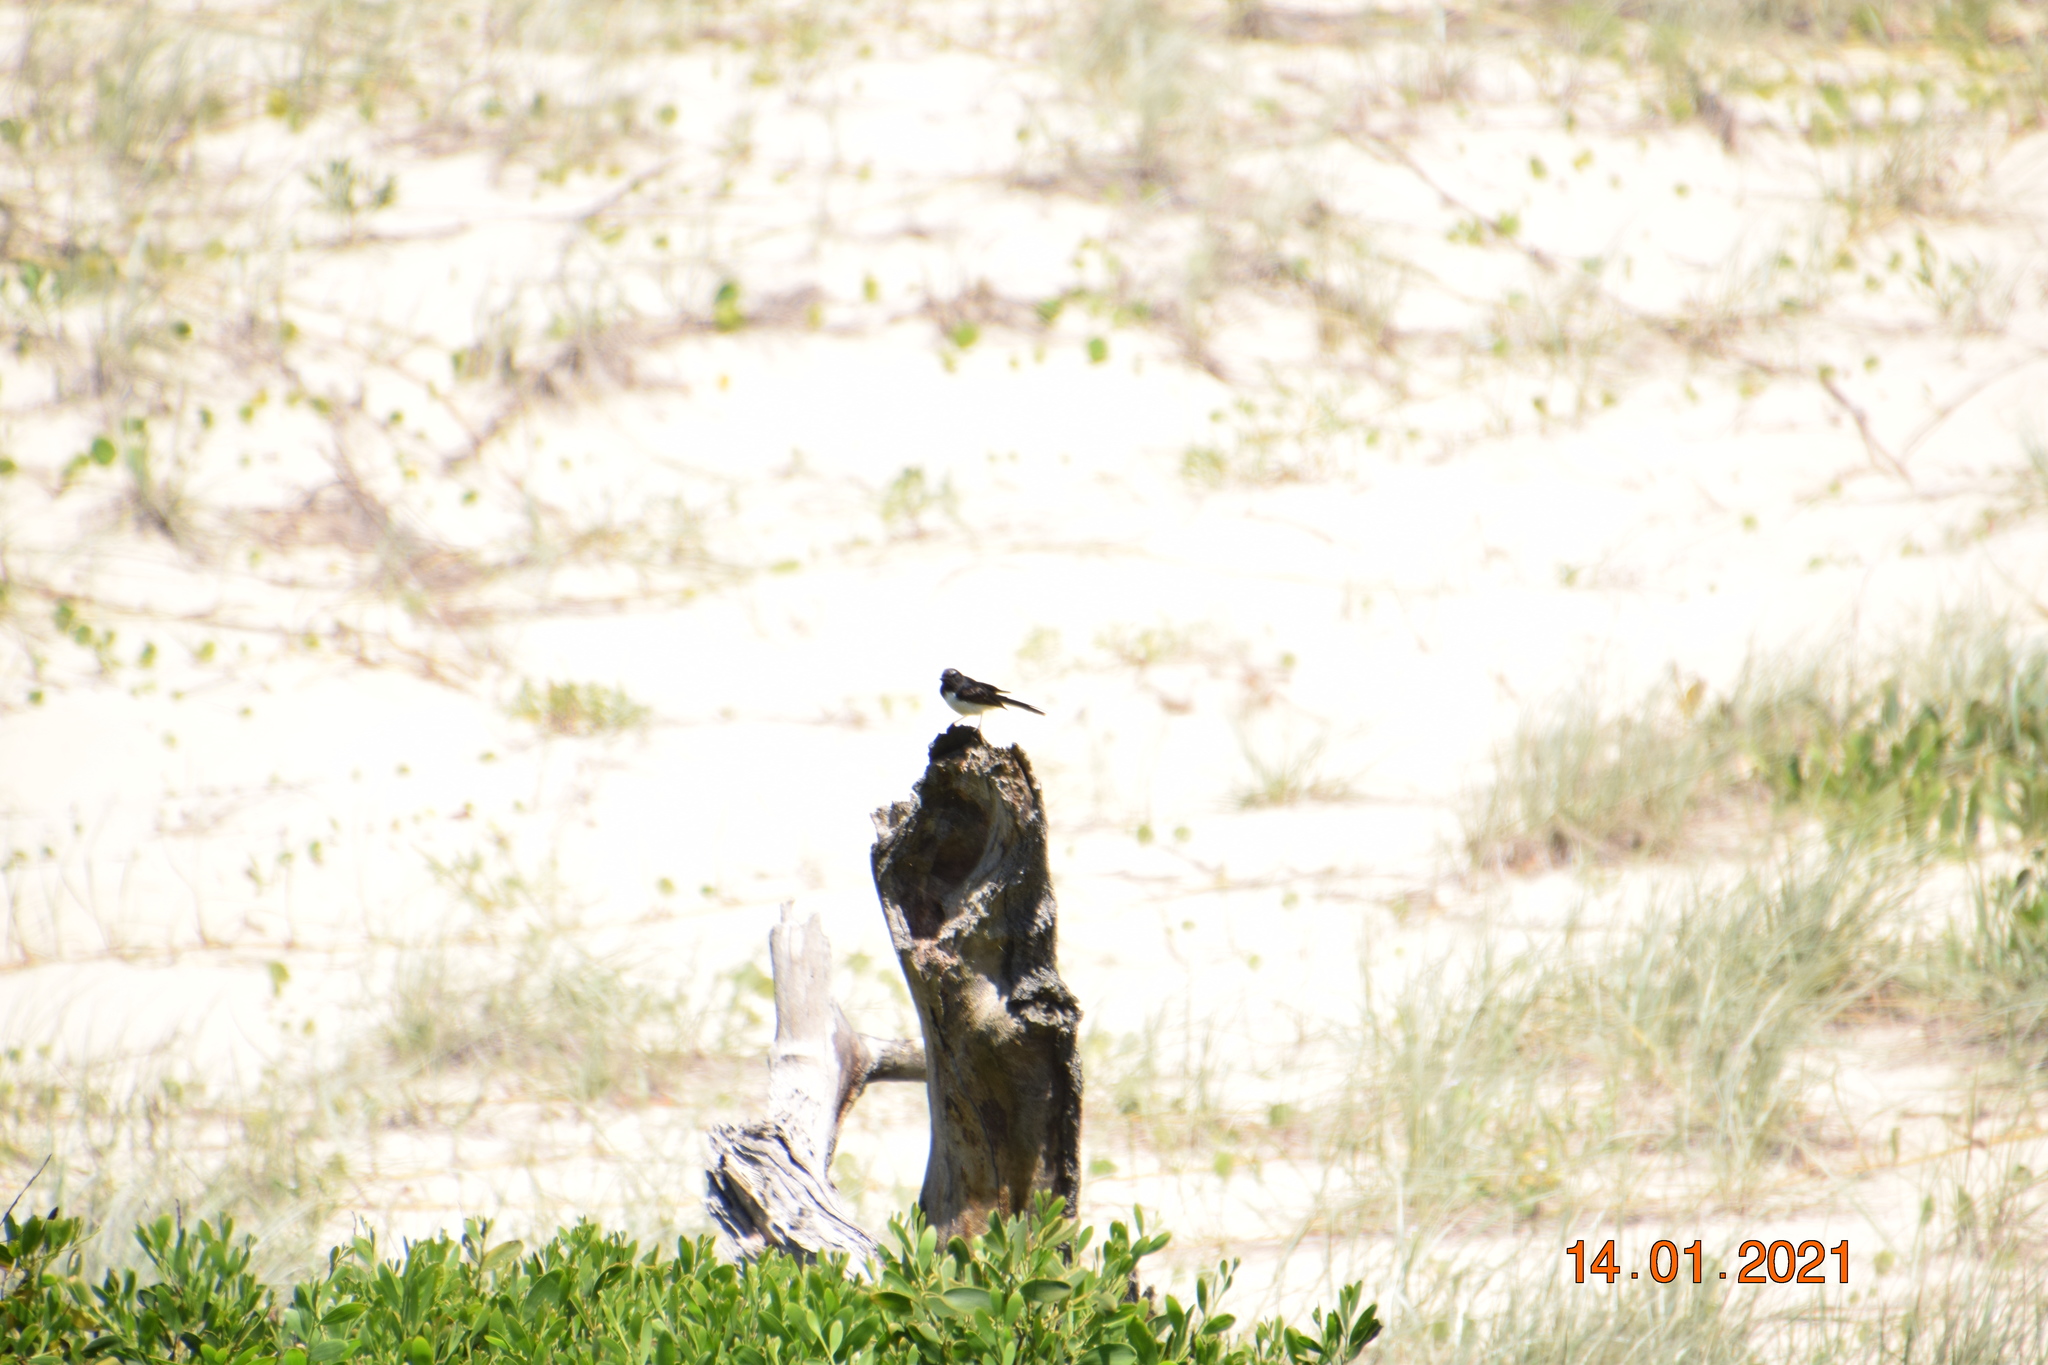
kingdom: Animalia
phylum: Chordata
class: Aves
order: Passeriformes
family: Rhipiduridae
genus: Rhipidura
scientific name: Rhipidura leucophrys
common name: Willie wagtail
